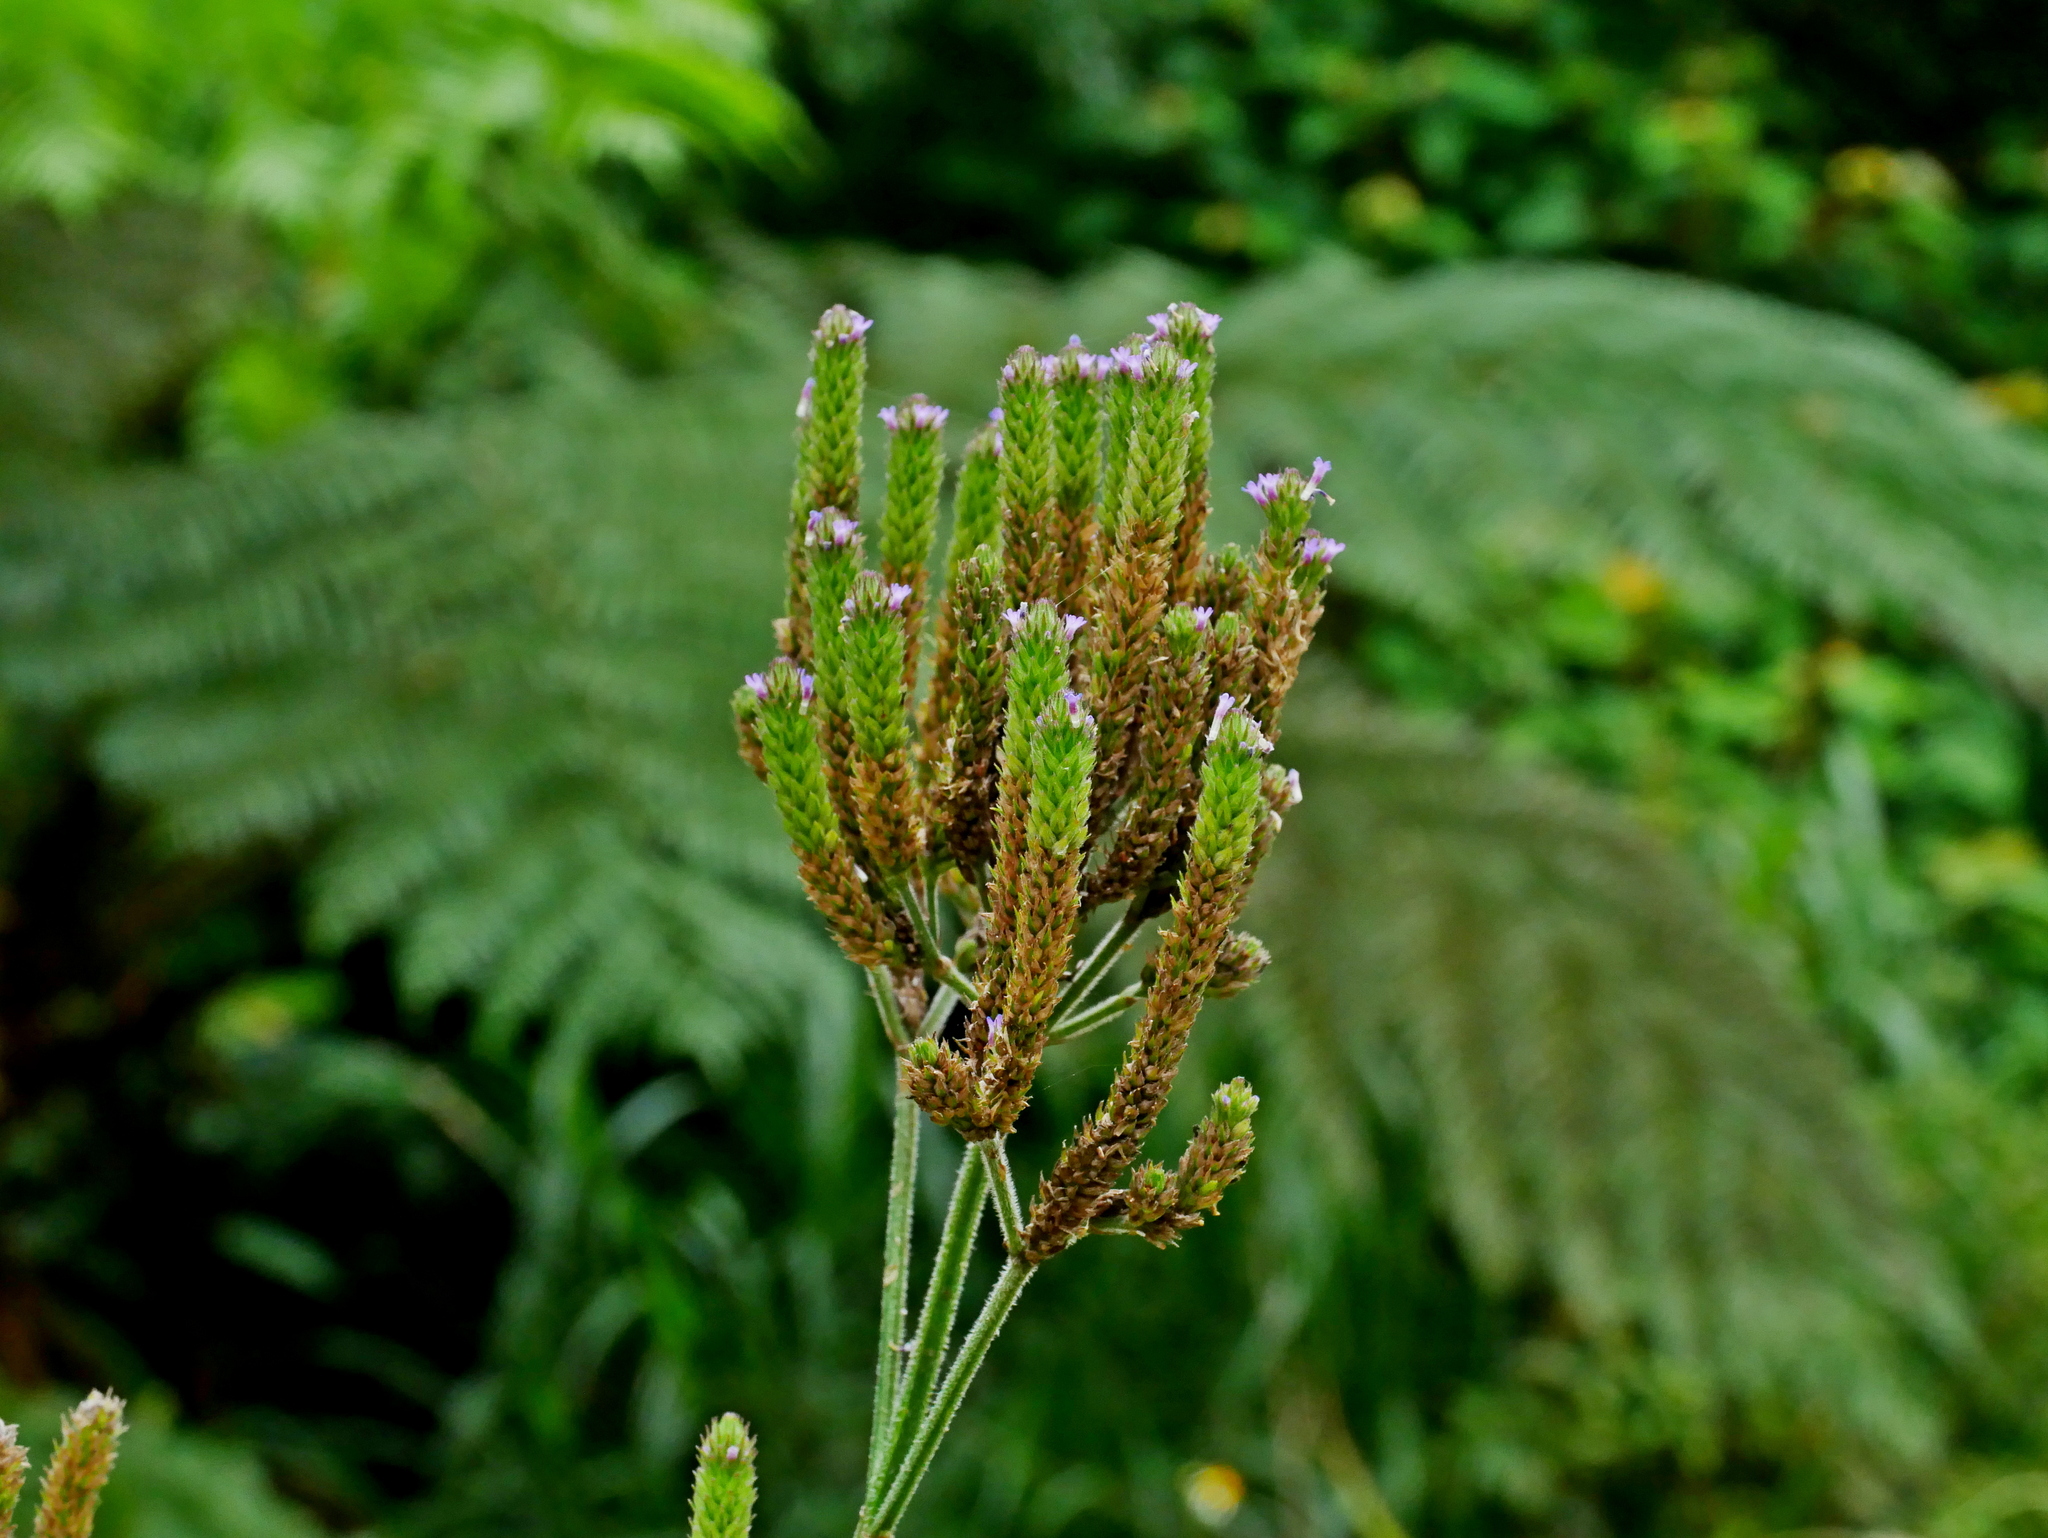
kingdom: Plantae
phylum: Tracheophyta
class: Magnoliopsida
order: Lamiales
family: Verbenaceae
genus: Verbena
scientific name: Verbena incompta
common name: Purpletop vervain
